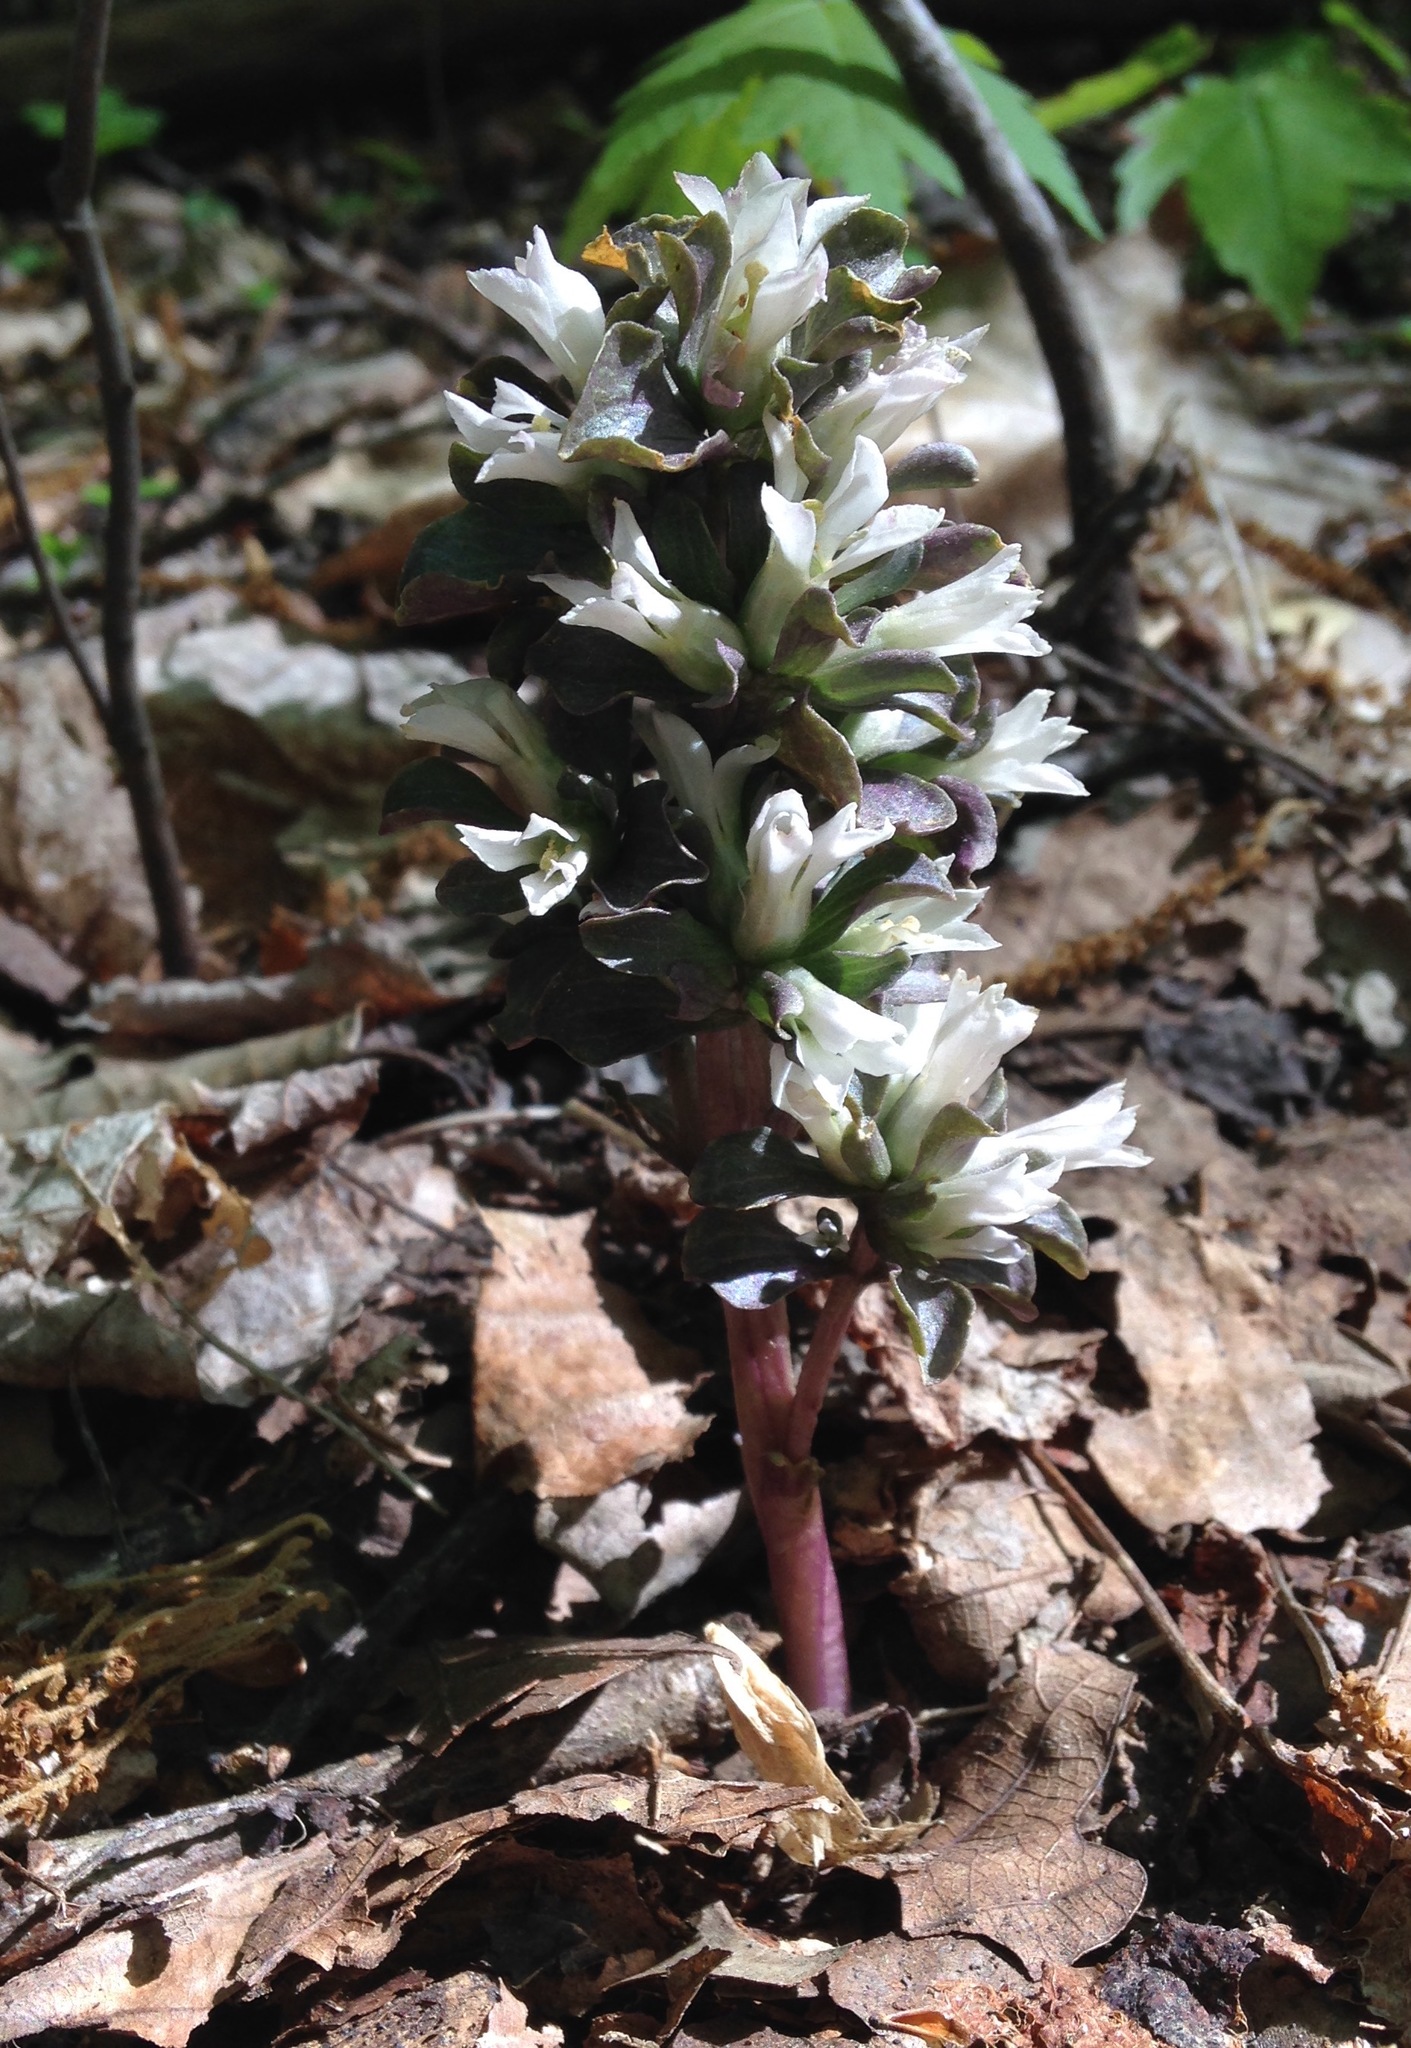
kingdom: Plantae
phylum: Tracheophyta
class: Magnoliopsida
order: Gentianales
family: Gentianaceae
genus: Obolaria
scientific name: Obolaria virginica
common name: Pennywort
